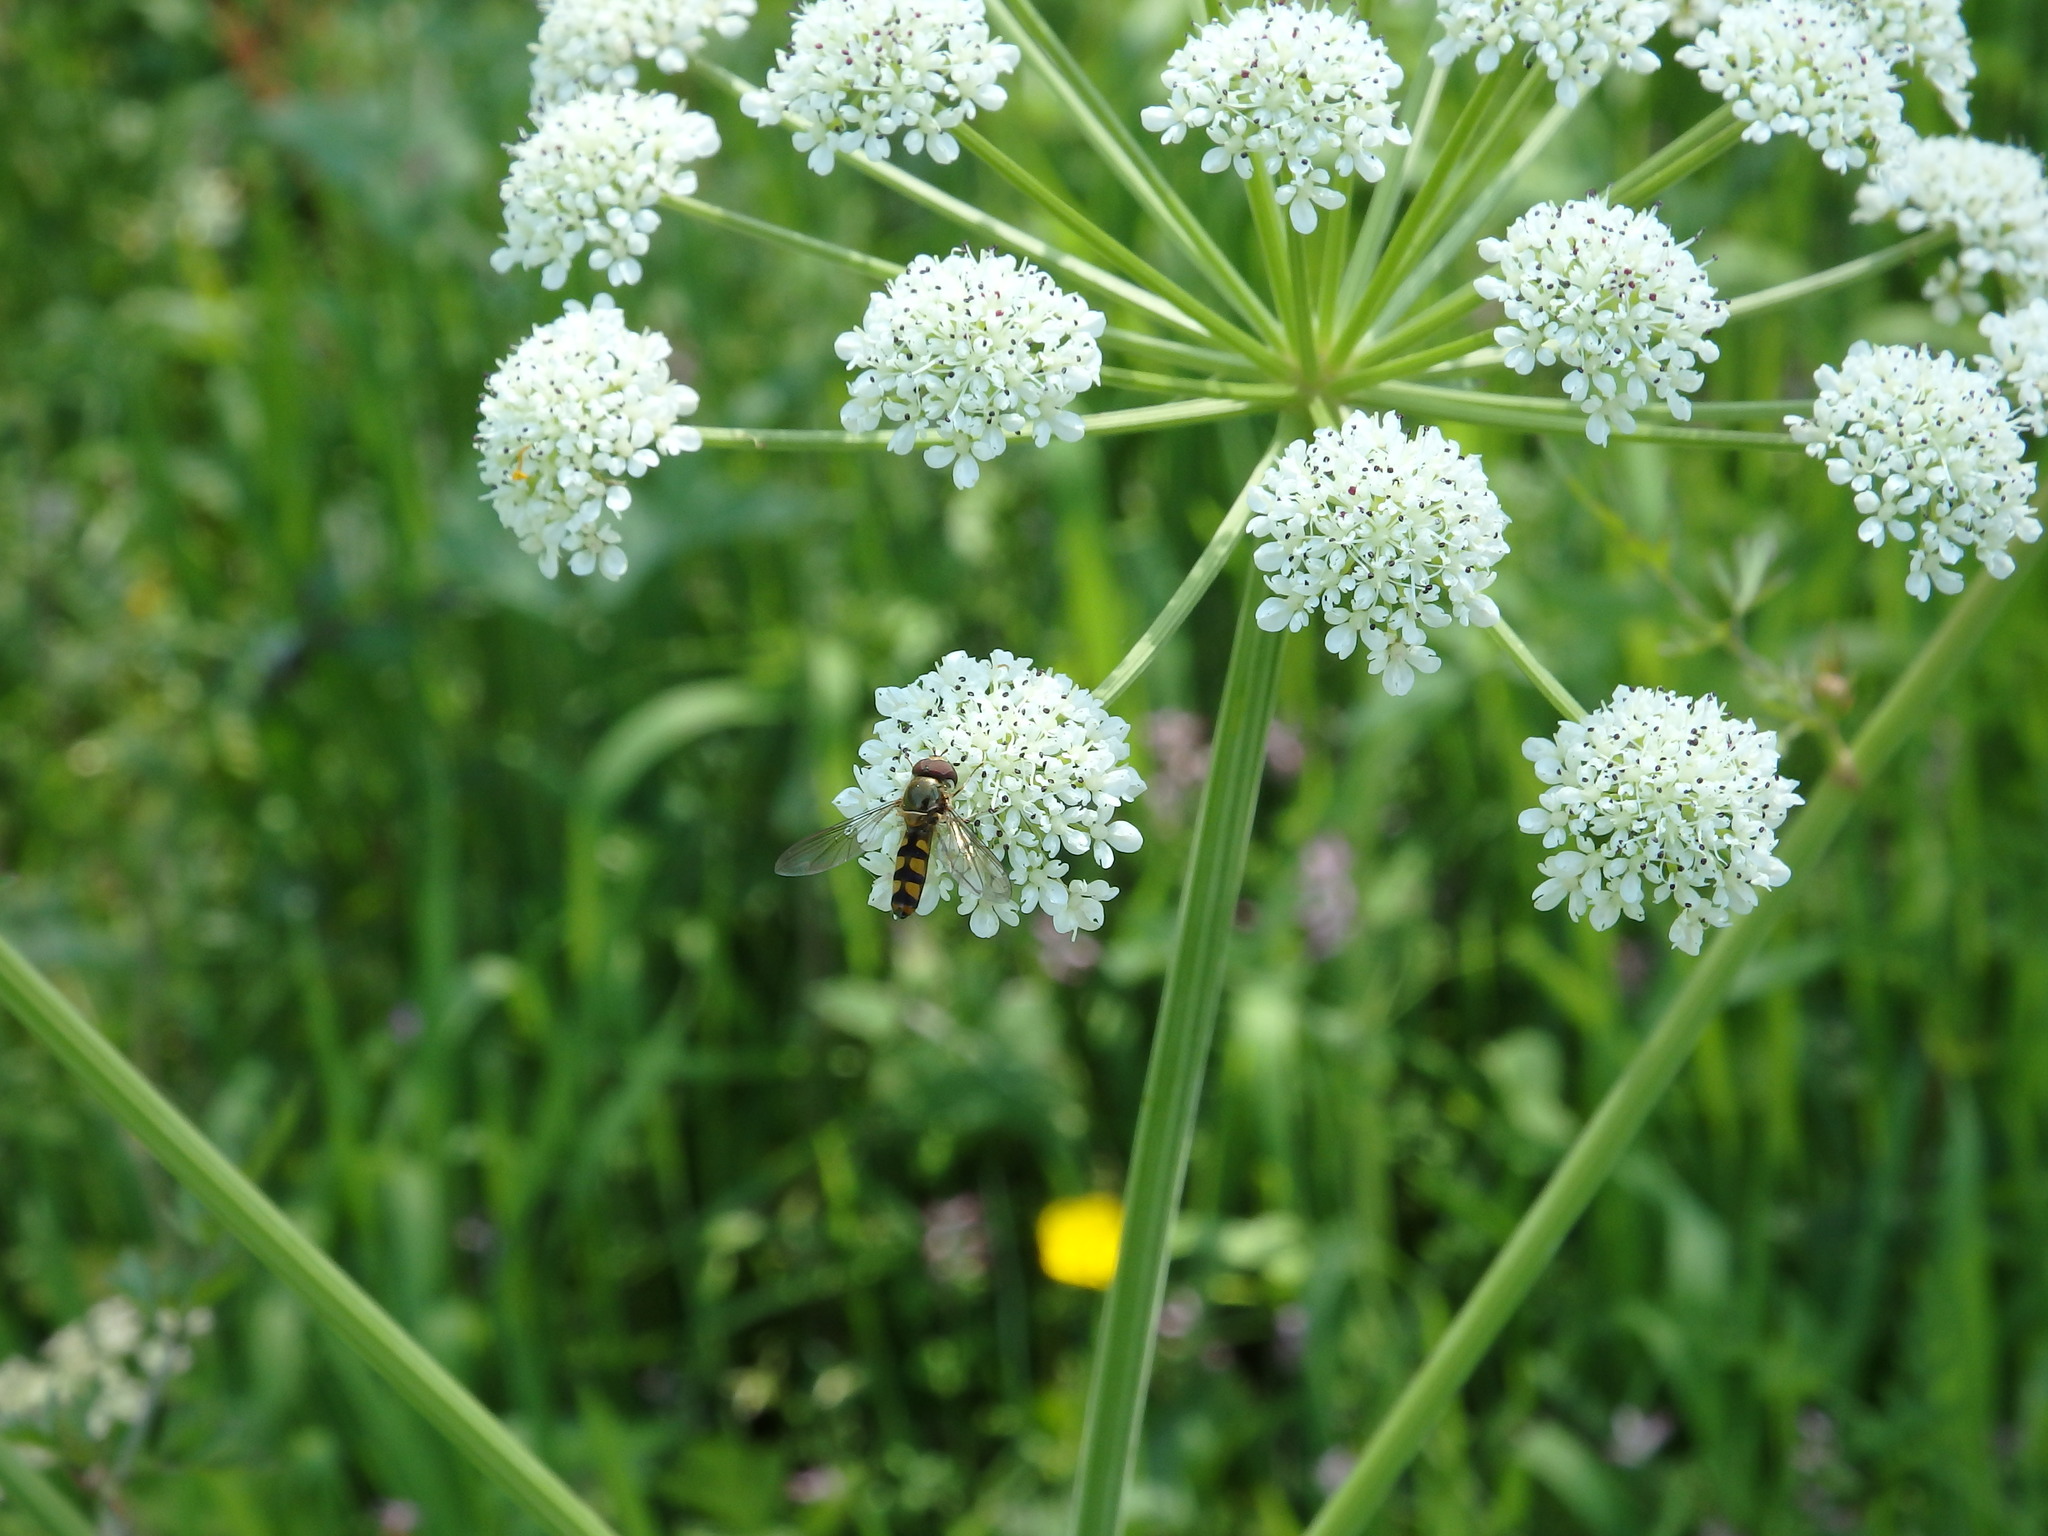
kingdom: Animalia
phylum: Arthropoda
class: Insecta
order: Diptera
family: Syrphidae
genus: Meliscaeva
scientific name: Meliscaeva auricollis
